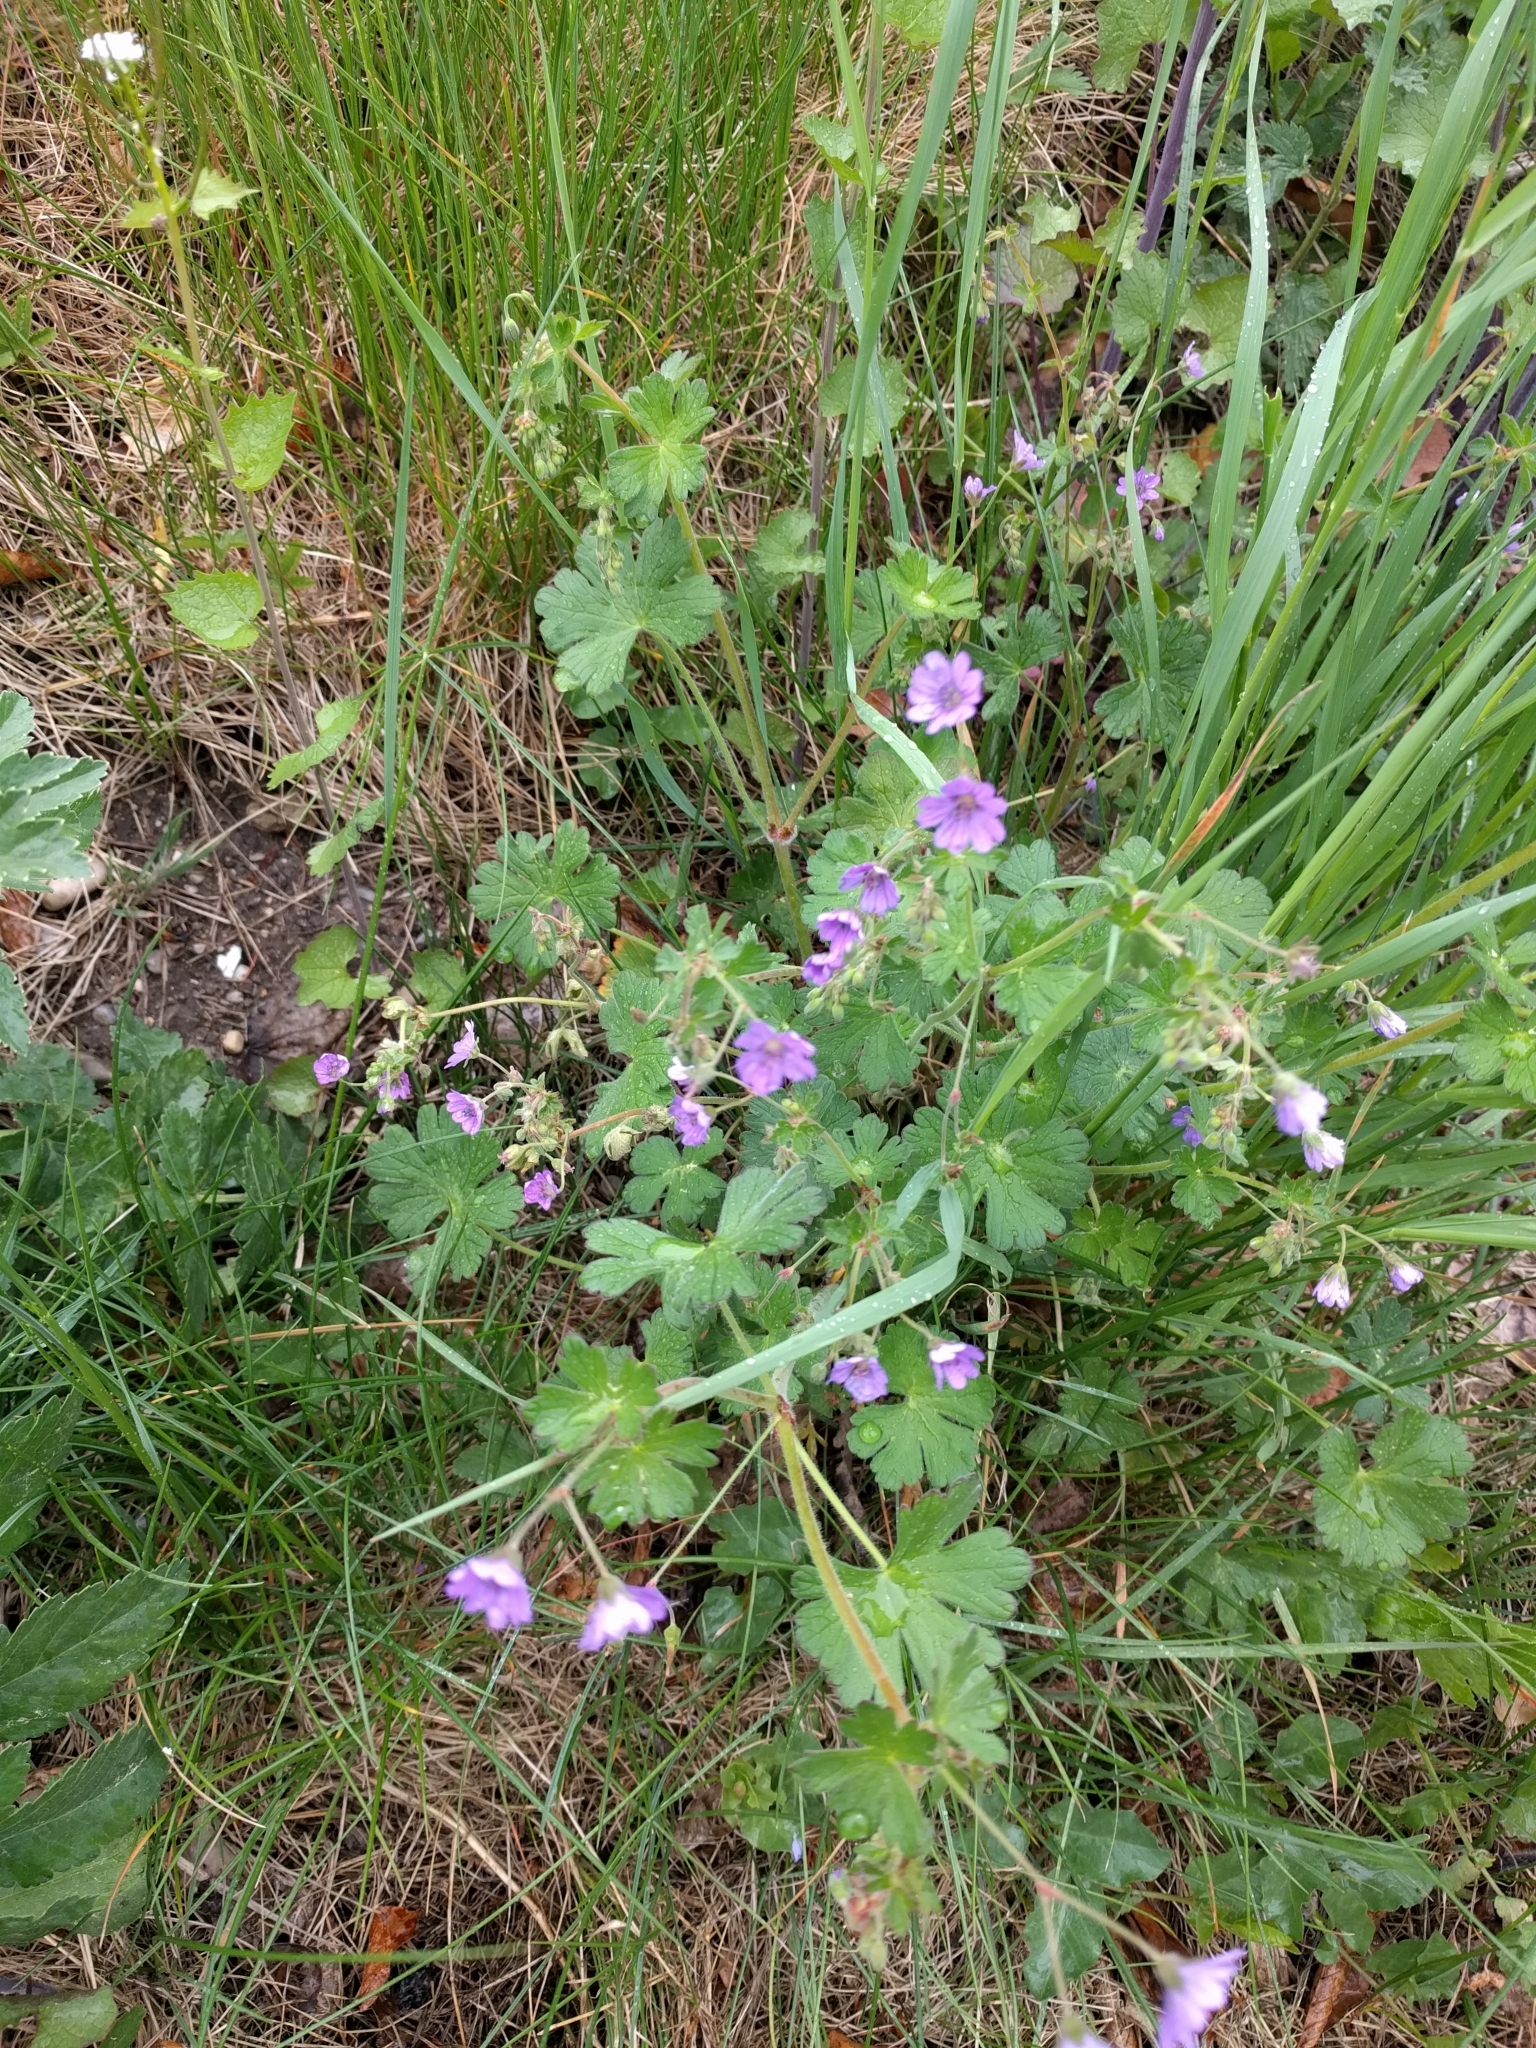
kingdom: Plantae
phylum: Tracheophyta
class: Magnoliopsida
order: Geraniales
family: Geraniaceae
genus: Geranium
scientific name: Geranium pyrenaicum
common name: Hedgerow crane's-bill
